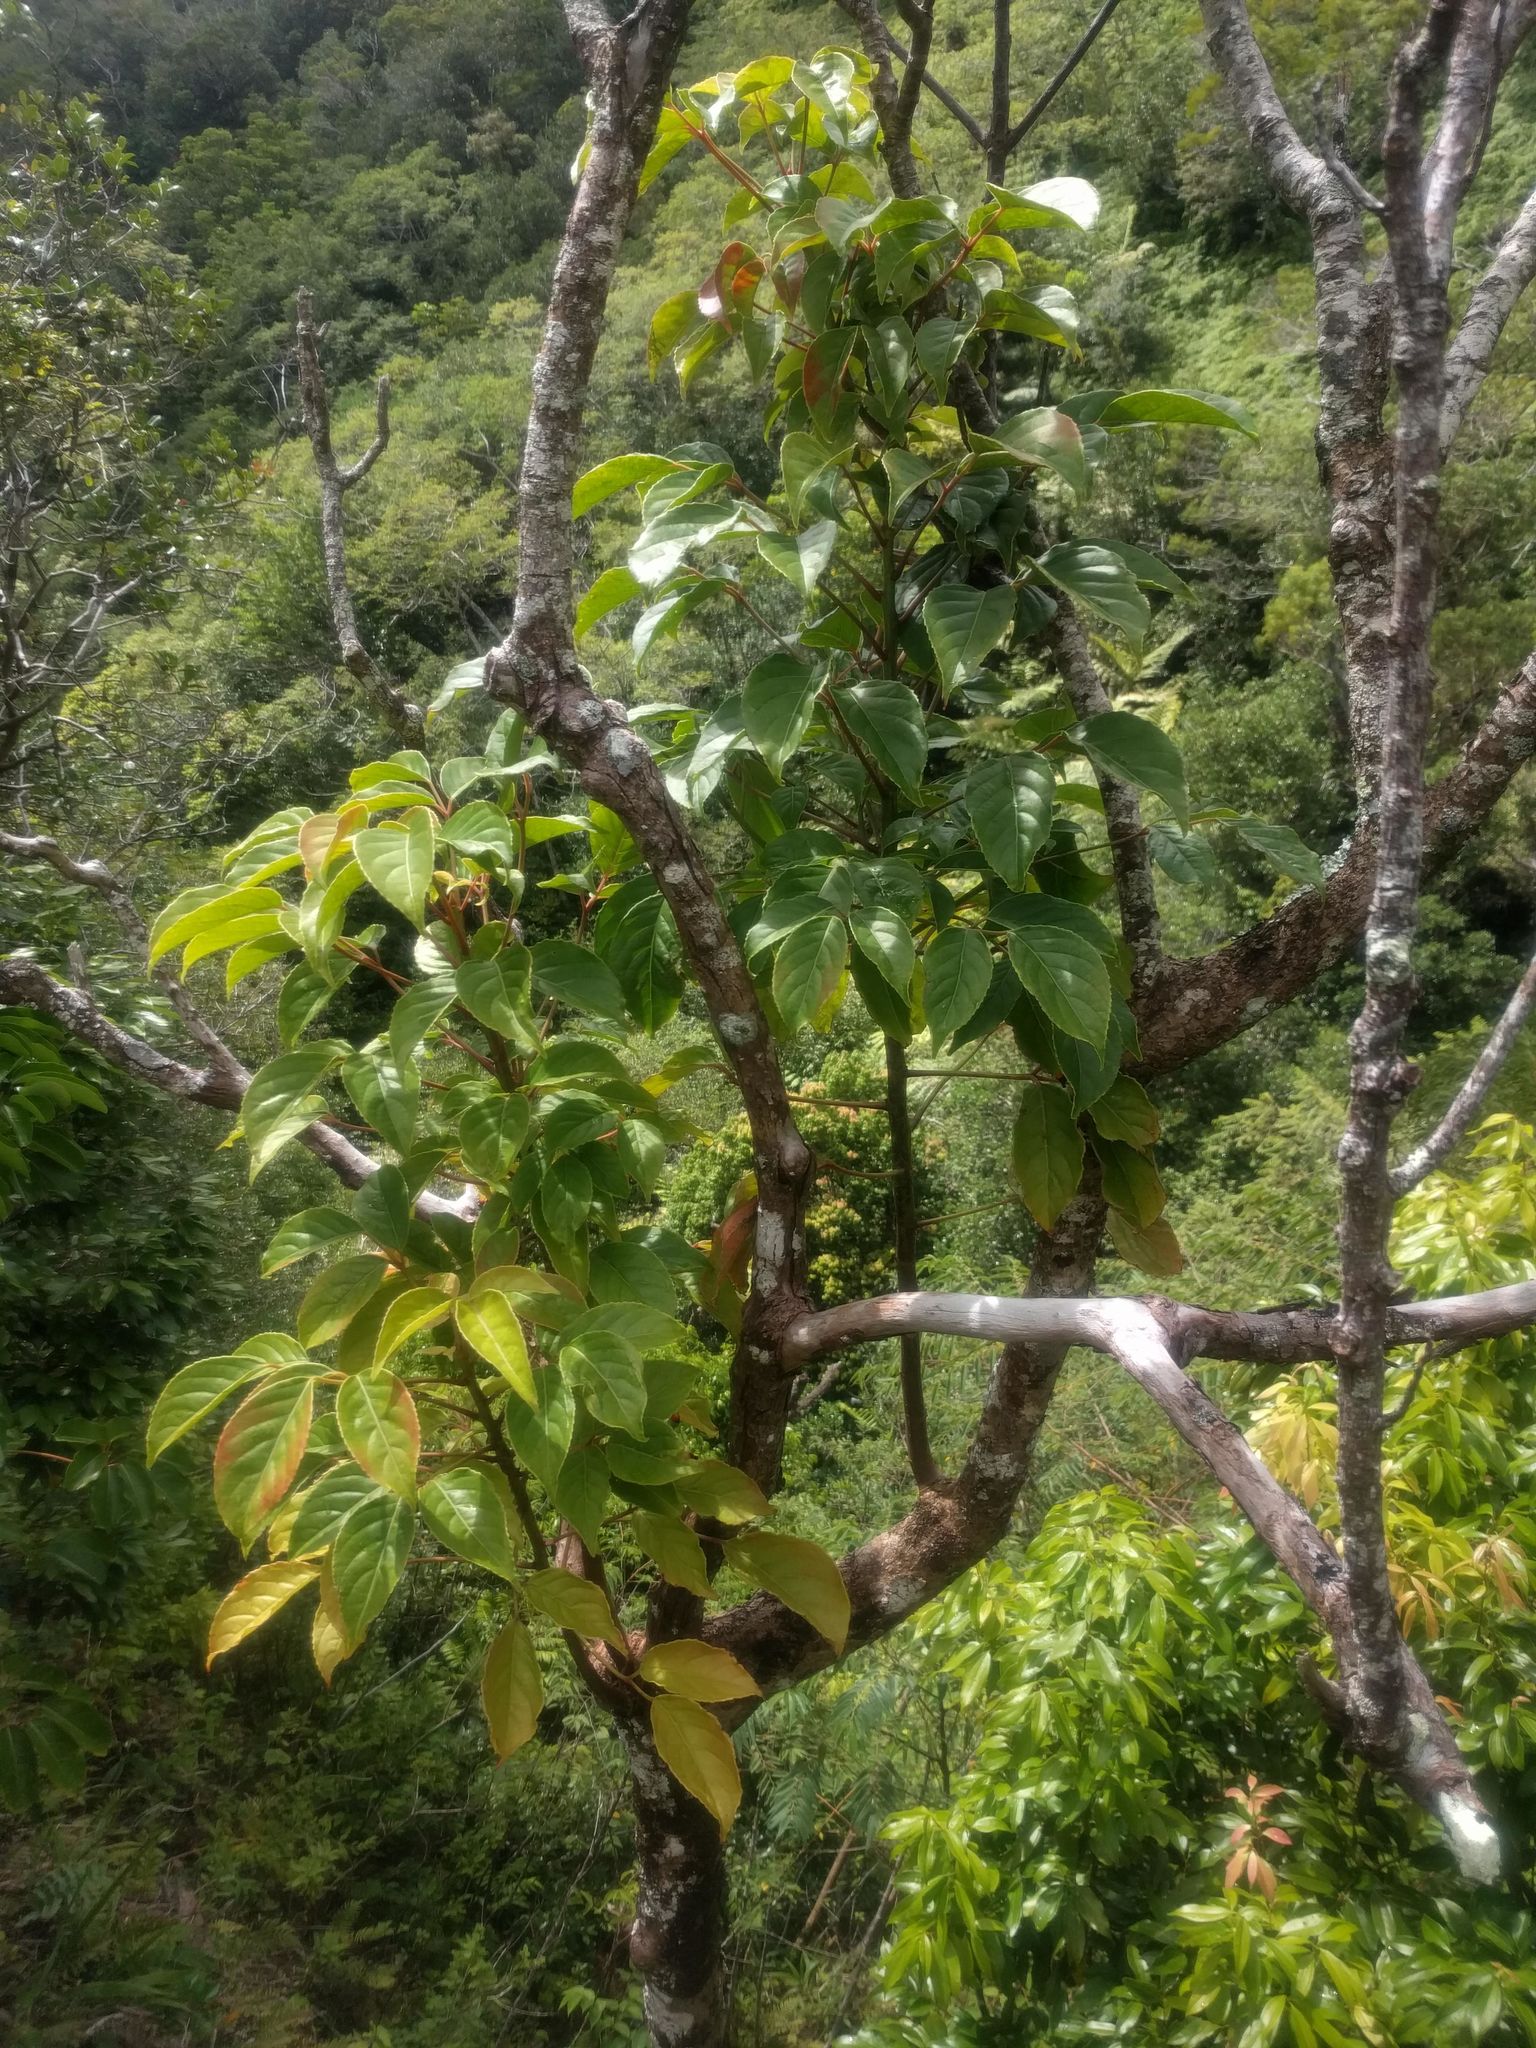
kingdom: Plantae
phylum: Tracheophyta
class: Magnoliopsida
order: Malpighiales
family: Phyllanthaceae
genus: Bischofia
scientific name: Bischofia javanica
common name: Javanese bishopwood
